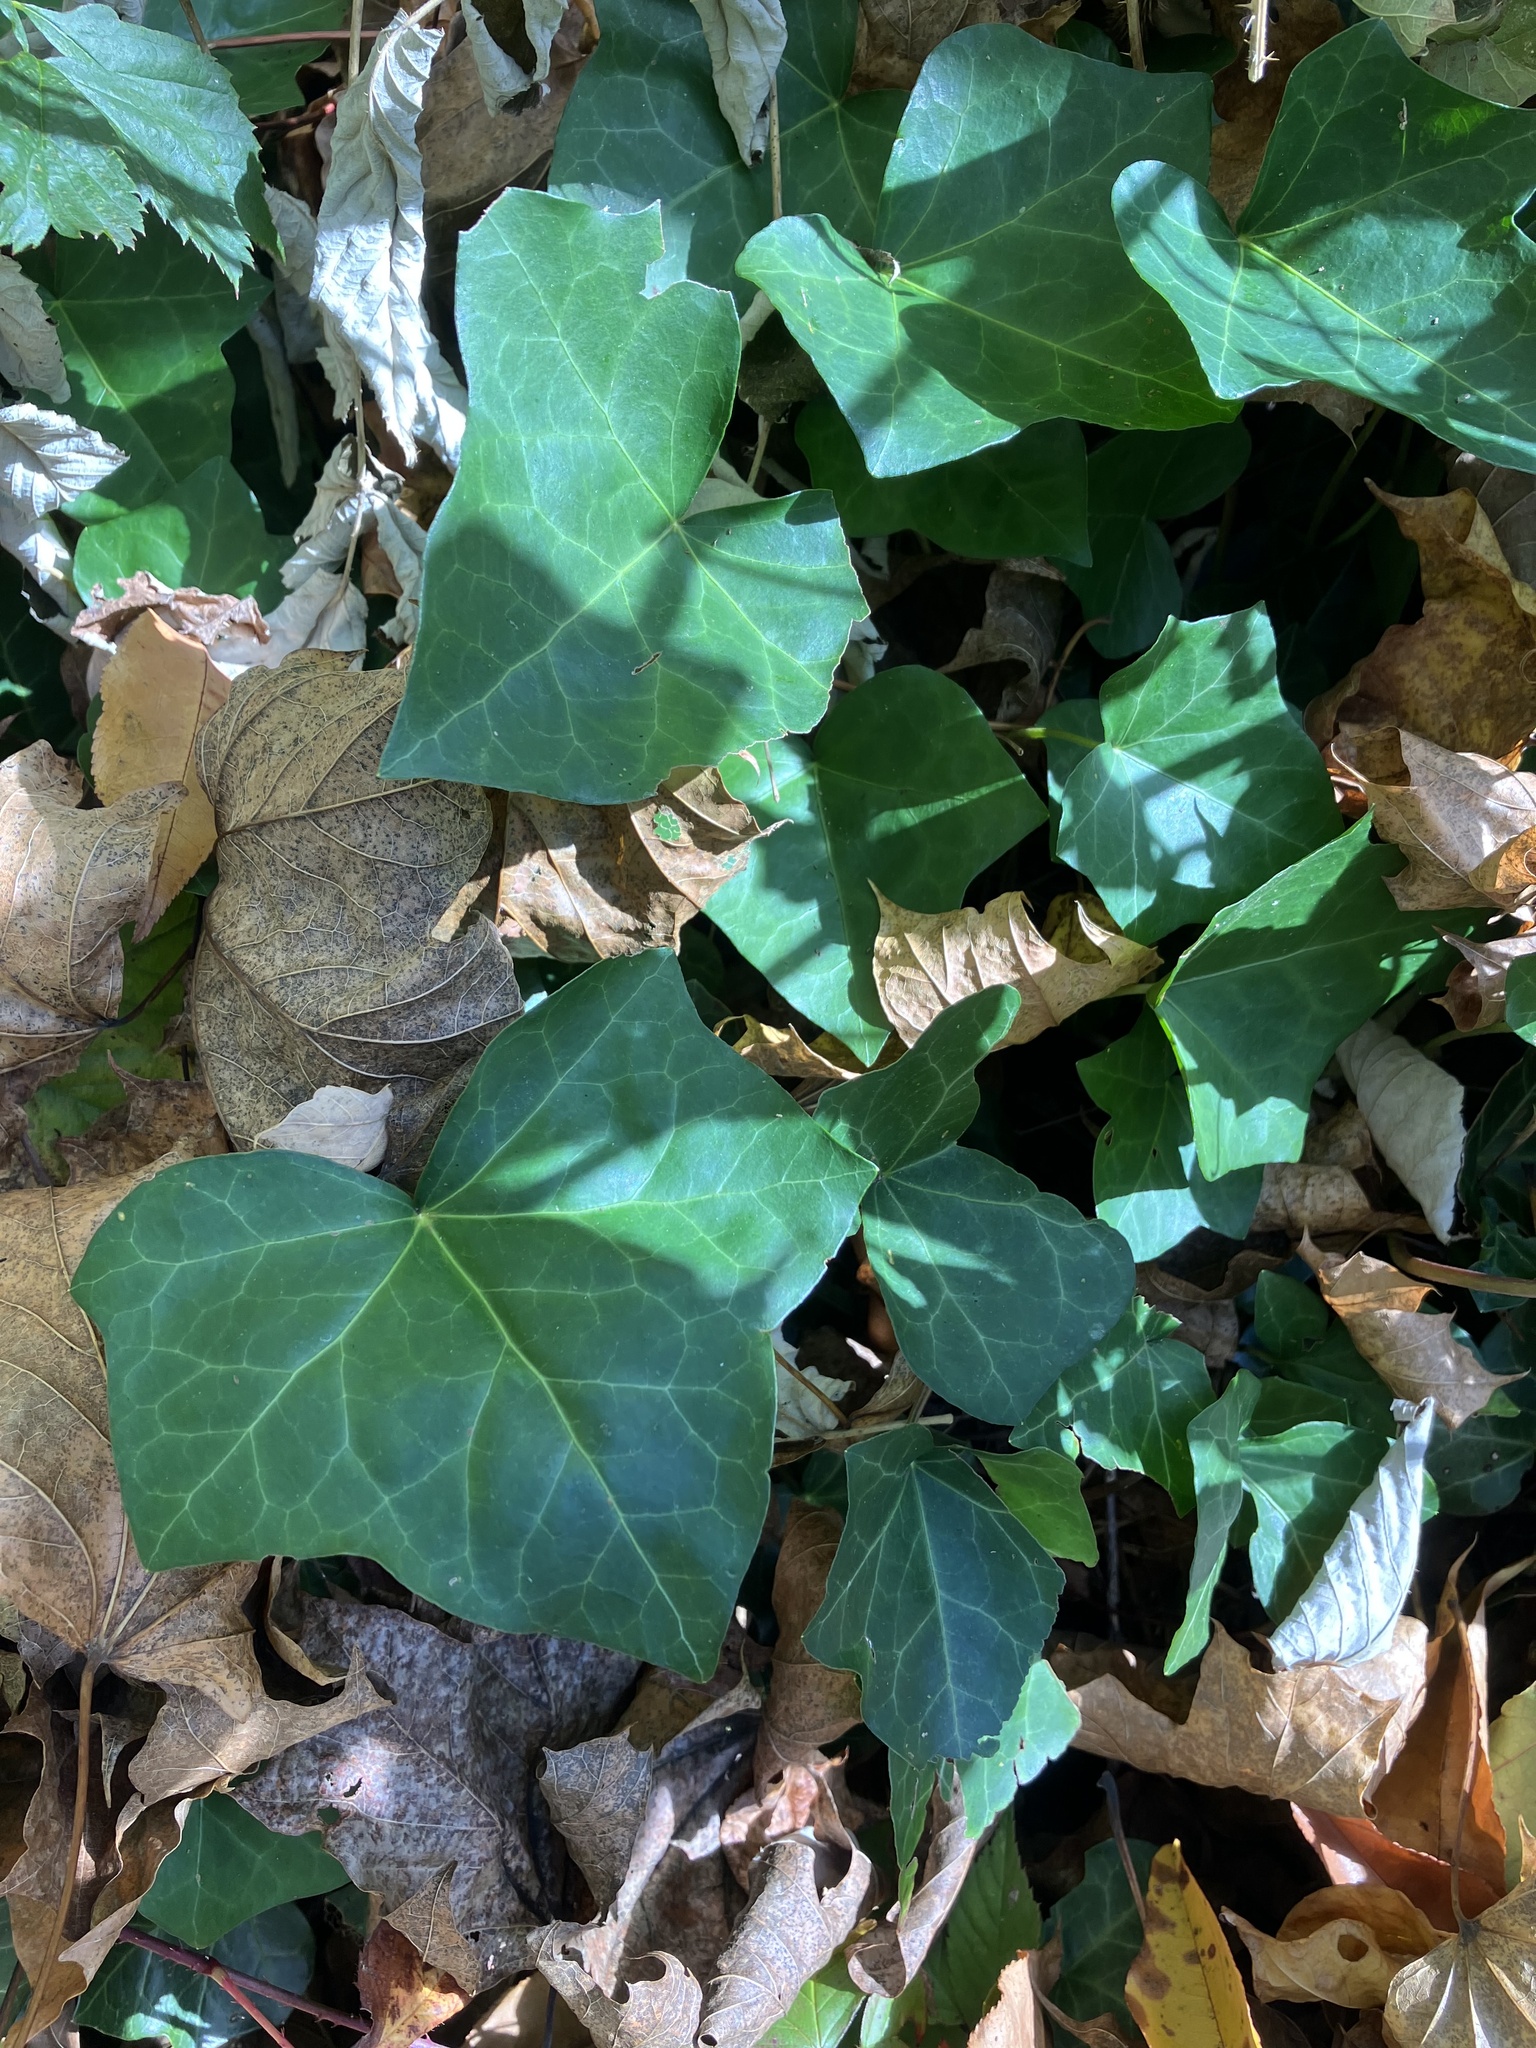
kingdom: Plantae
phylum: Tracheophyta
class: Magnoliopsida
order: Apiales
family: Araliaceae
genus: Hedera
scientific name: Hedera helix
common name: Ivy
